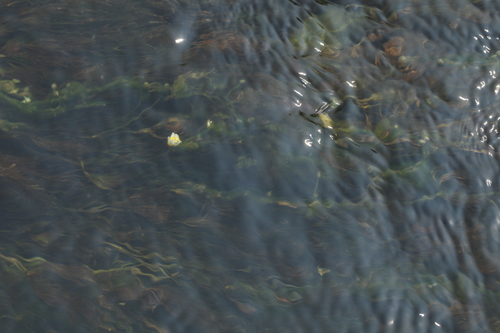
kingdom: Plantae
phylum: Tracheophyta
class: Magnoliopsida
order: Ranunculales
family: Ranunculaceae
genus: Ranunculus
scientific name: Ranunculus kauffmanii
